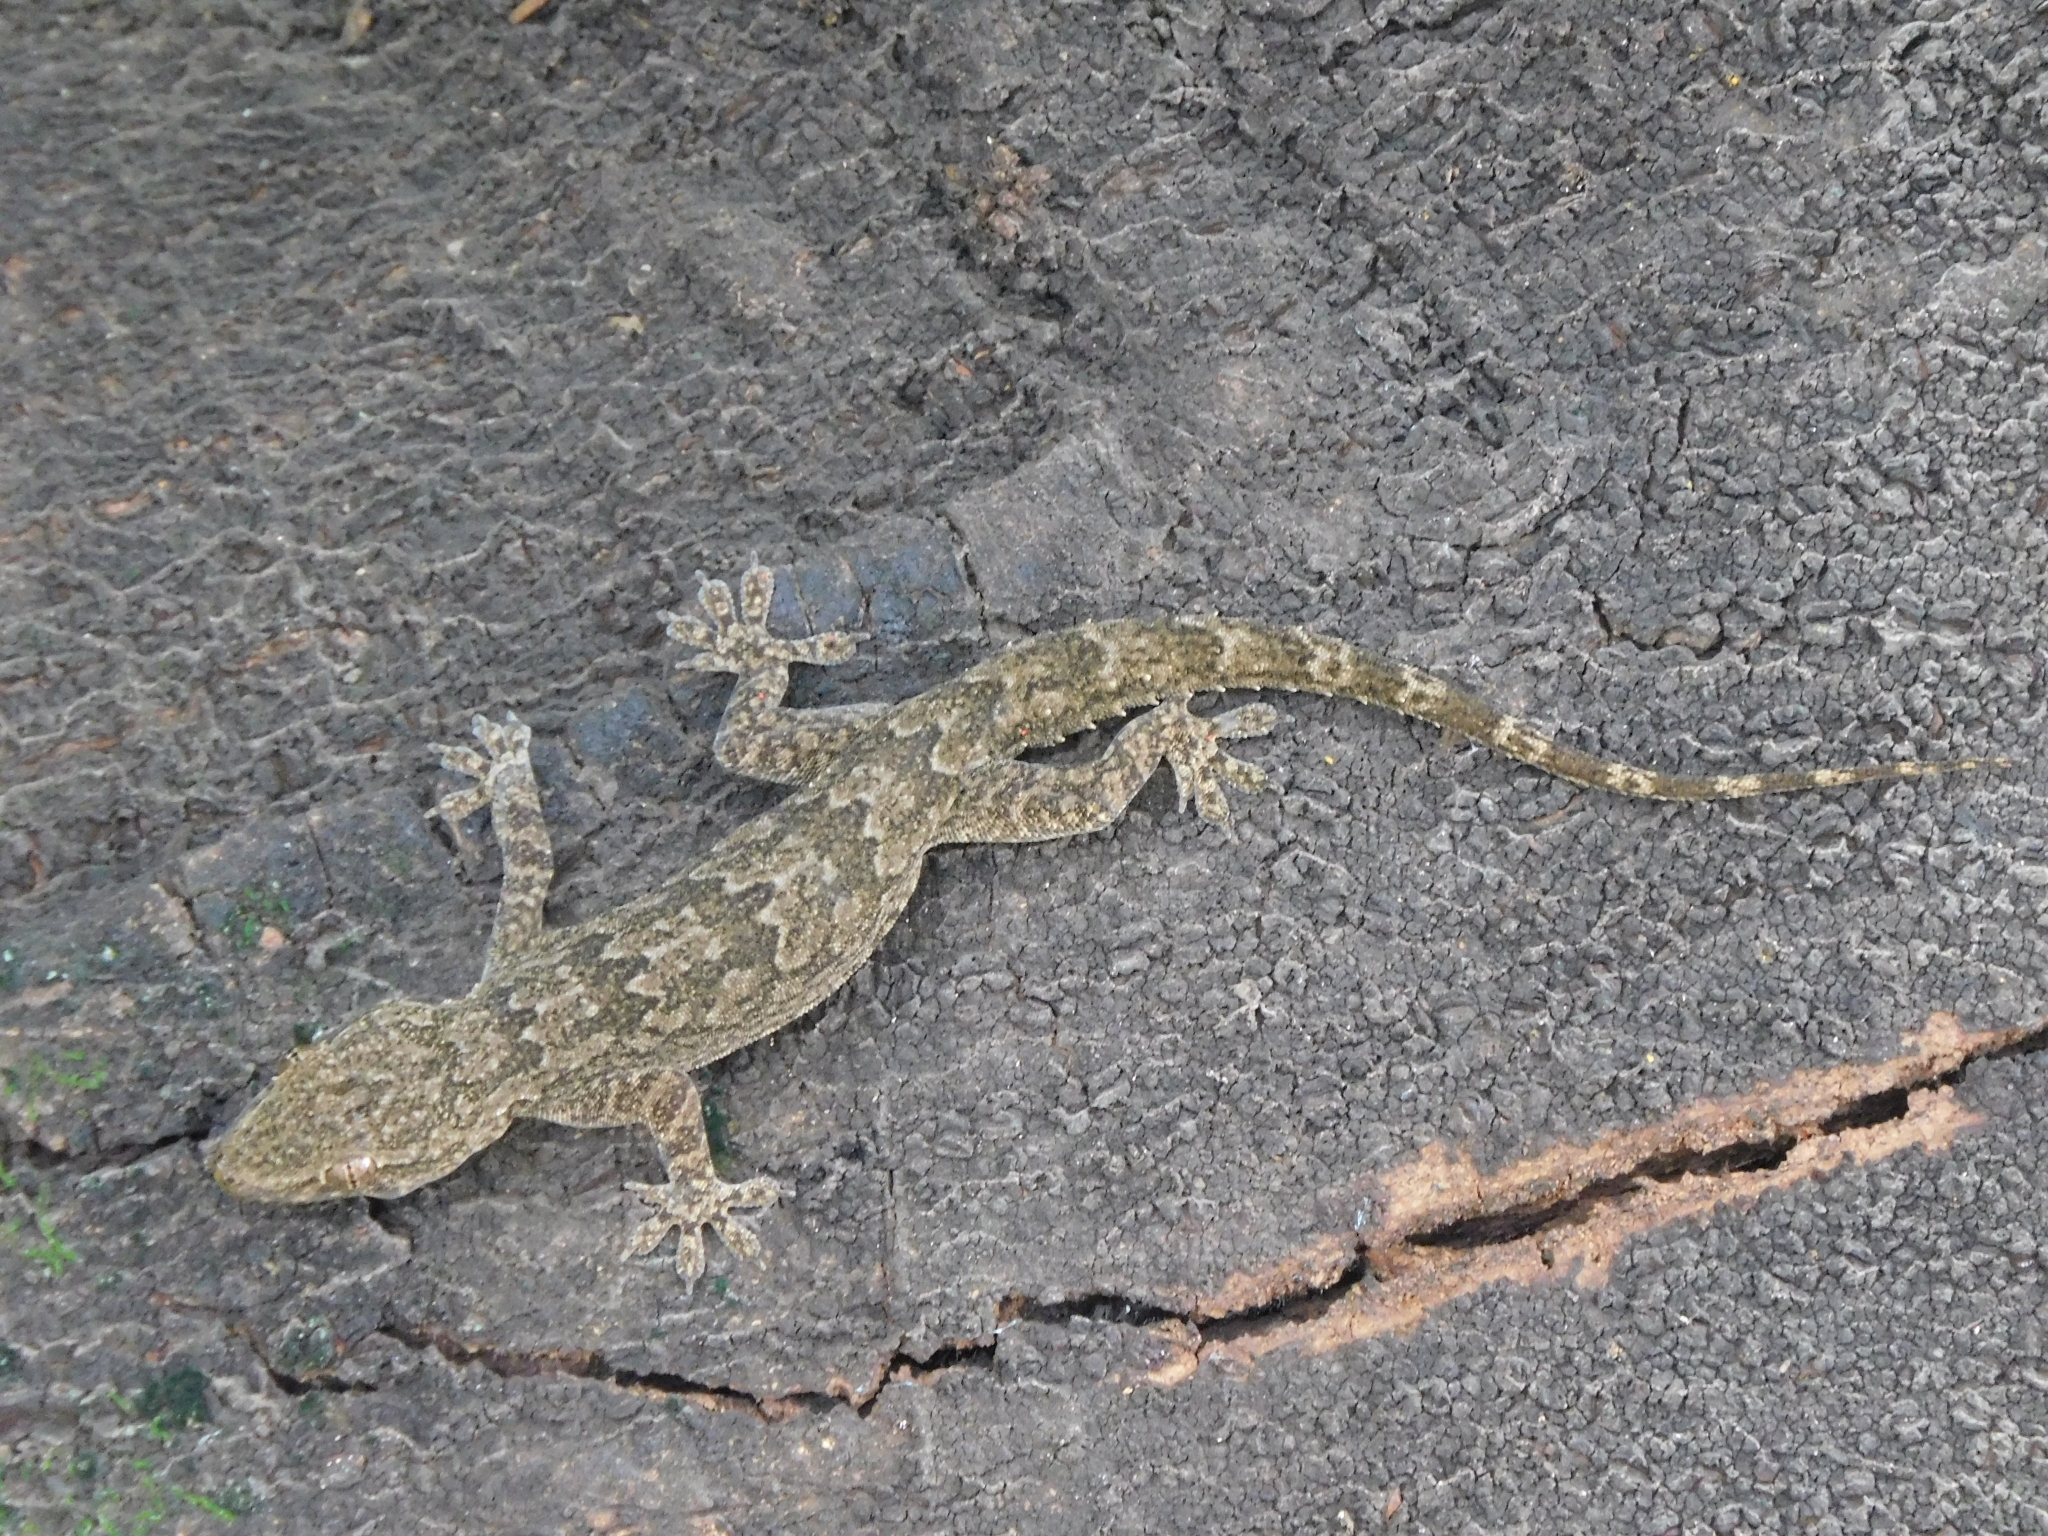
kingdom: Animalia
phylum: Chordata
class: Squamata
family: Gekkonidae
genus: Hemidactylus
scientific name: Hemidactylus leschenaultii
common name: Leschenault's leaf-toed gecko
